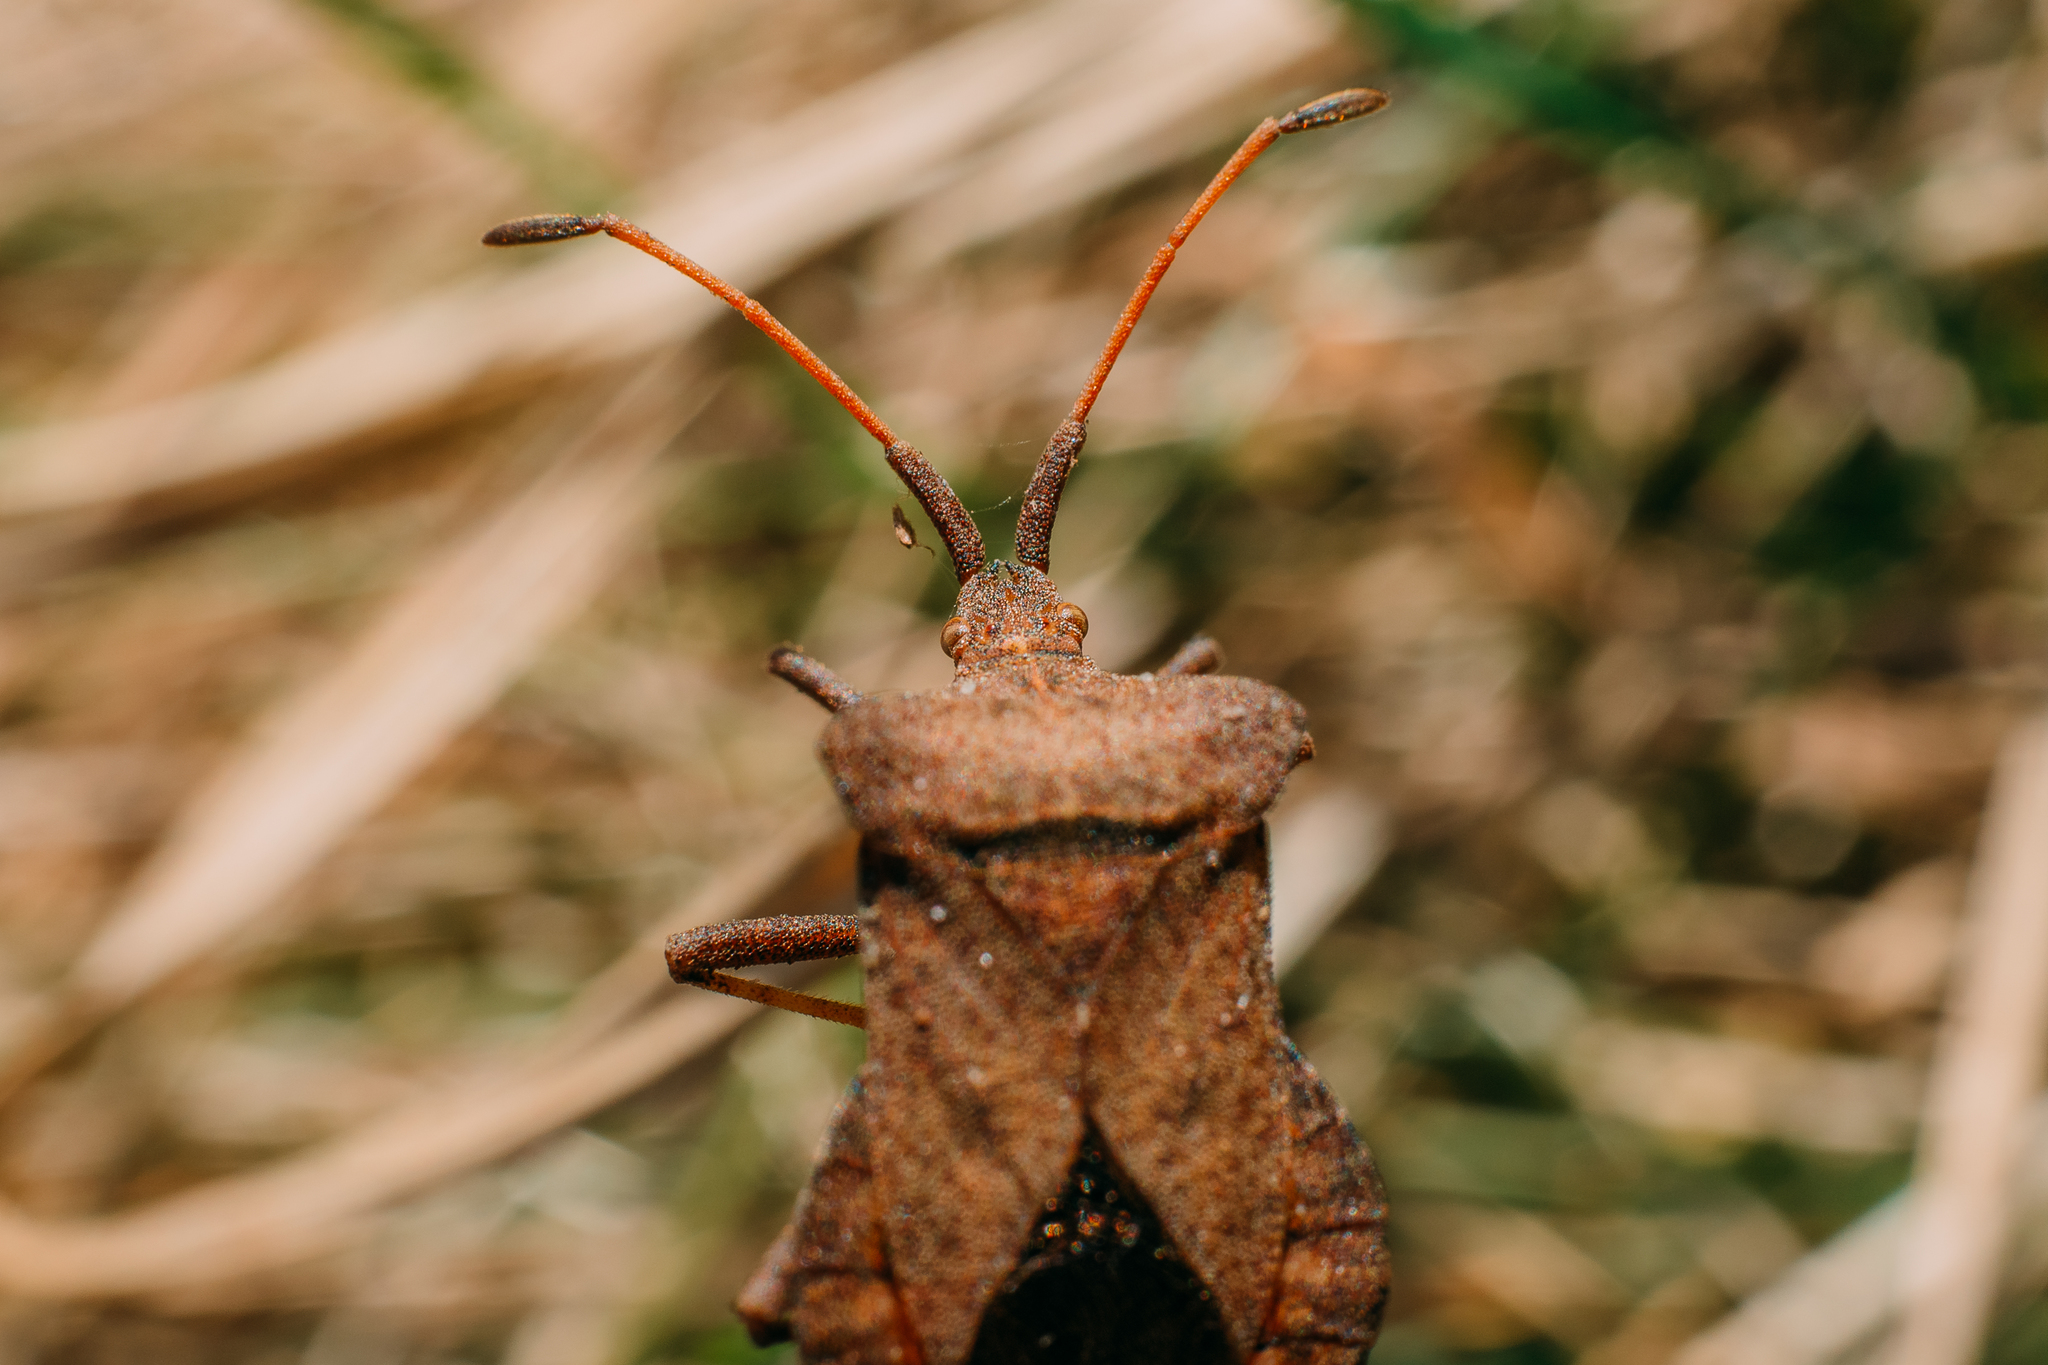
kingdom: Animalia
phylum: Arthropoda
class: Insecta
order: Hemiptera
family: Coreidae
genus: Coreus
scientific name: Coreus marginatus
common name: Dock bug
